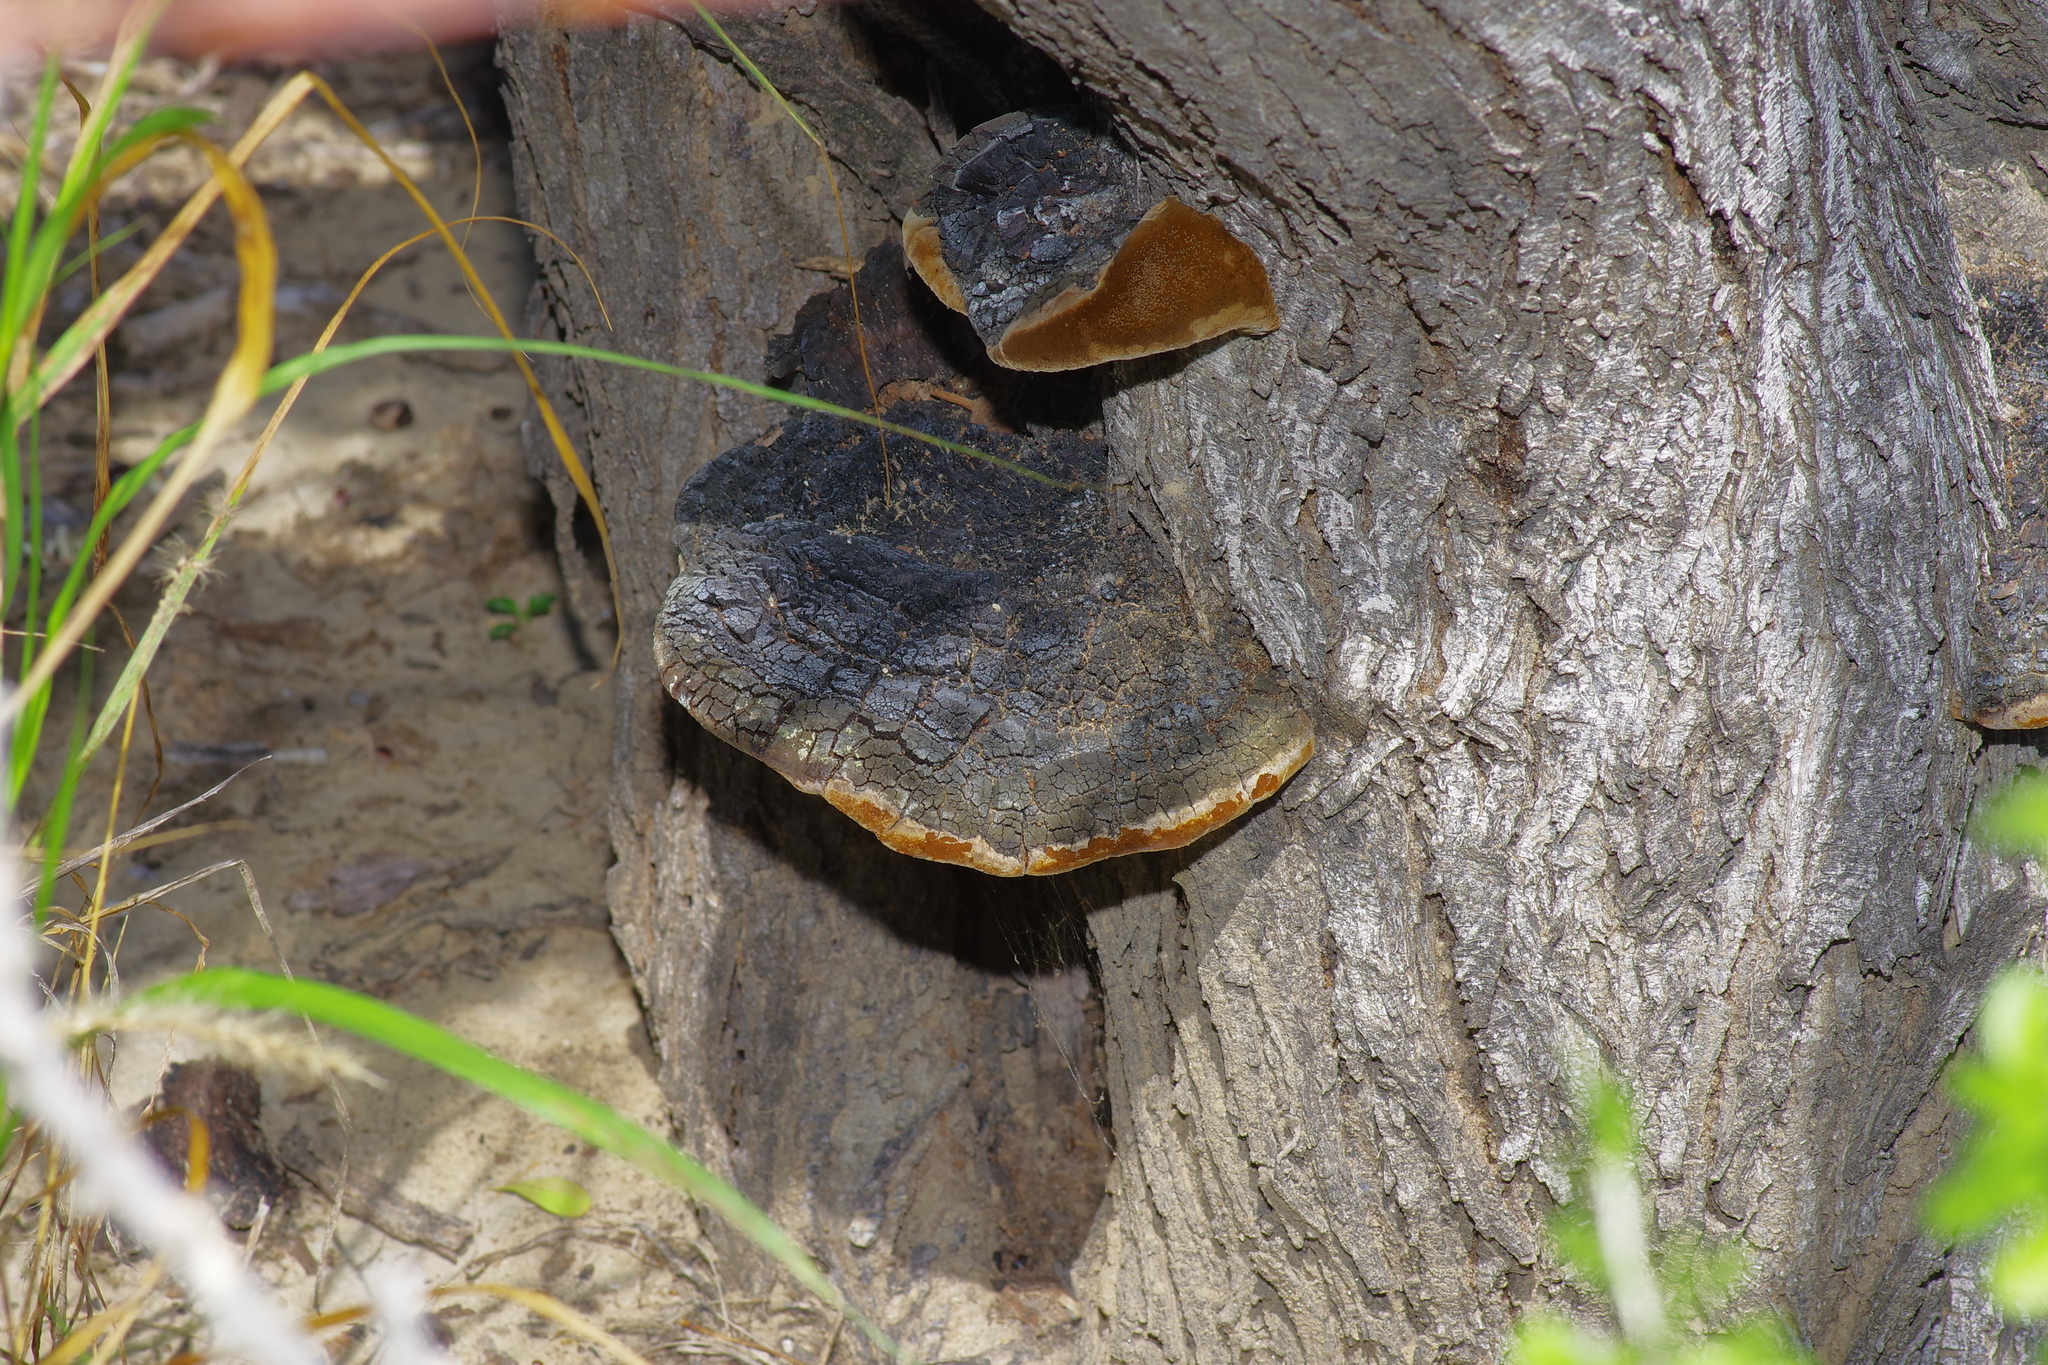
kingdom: Fungi
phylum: Basidiomycota
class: Agaricomycetes
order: Hymenochaetales
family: Hymenochaetaceae
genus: Phellinotus
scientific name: Phellinotus badius
